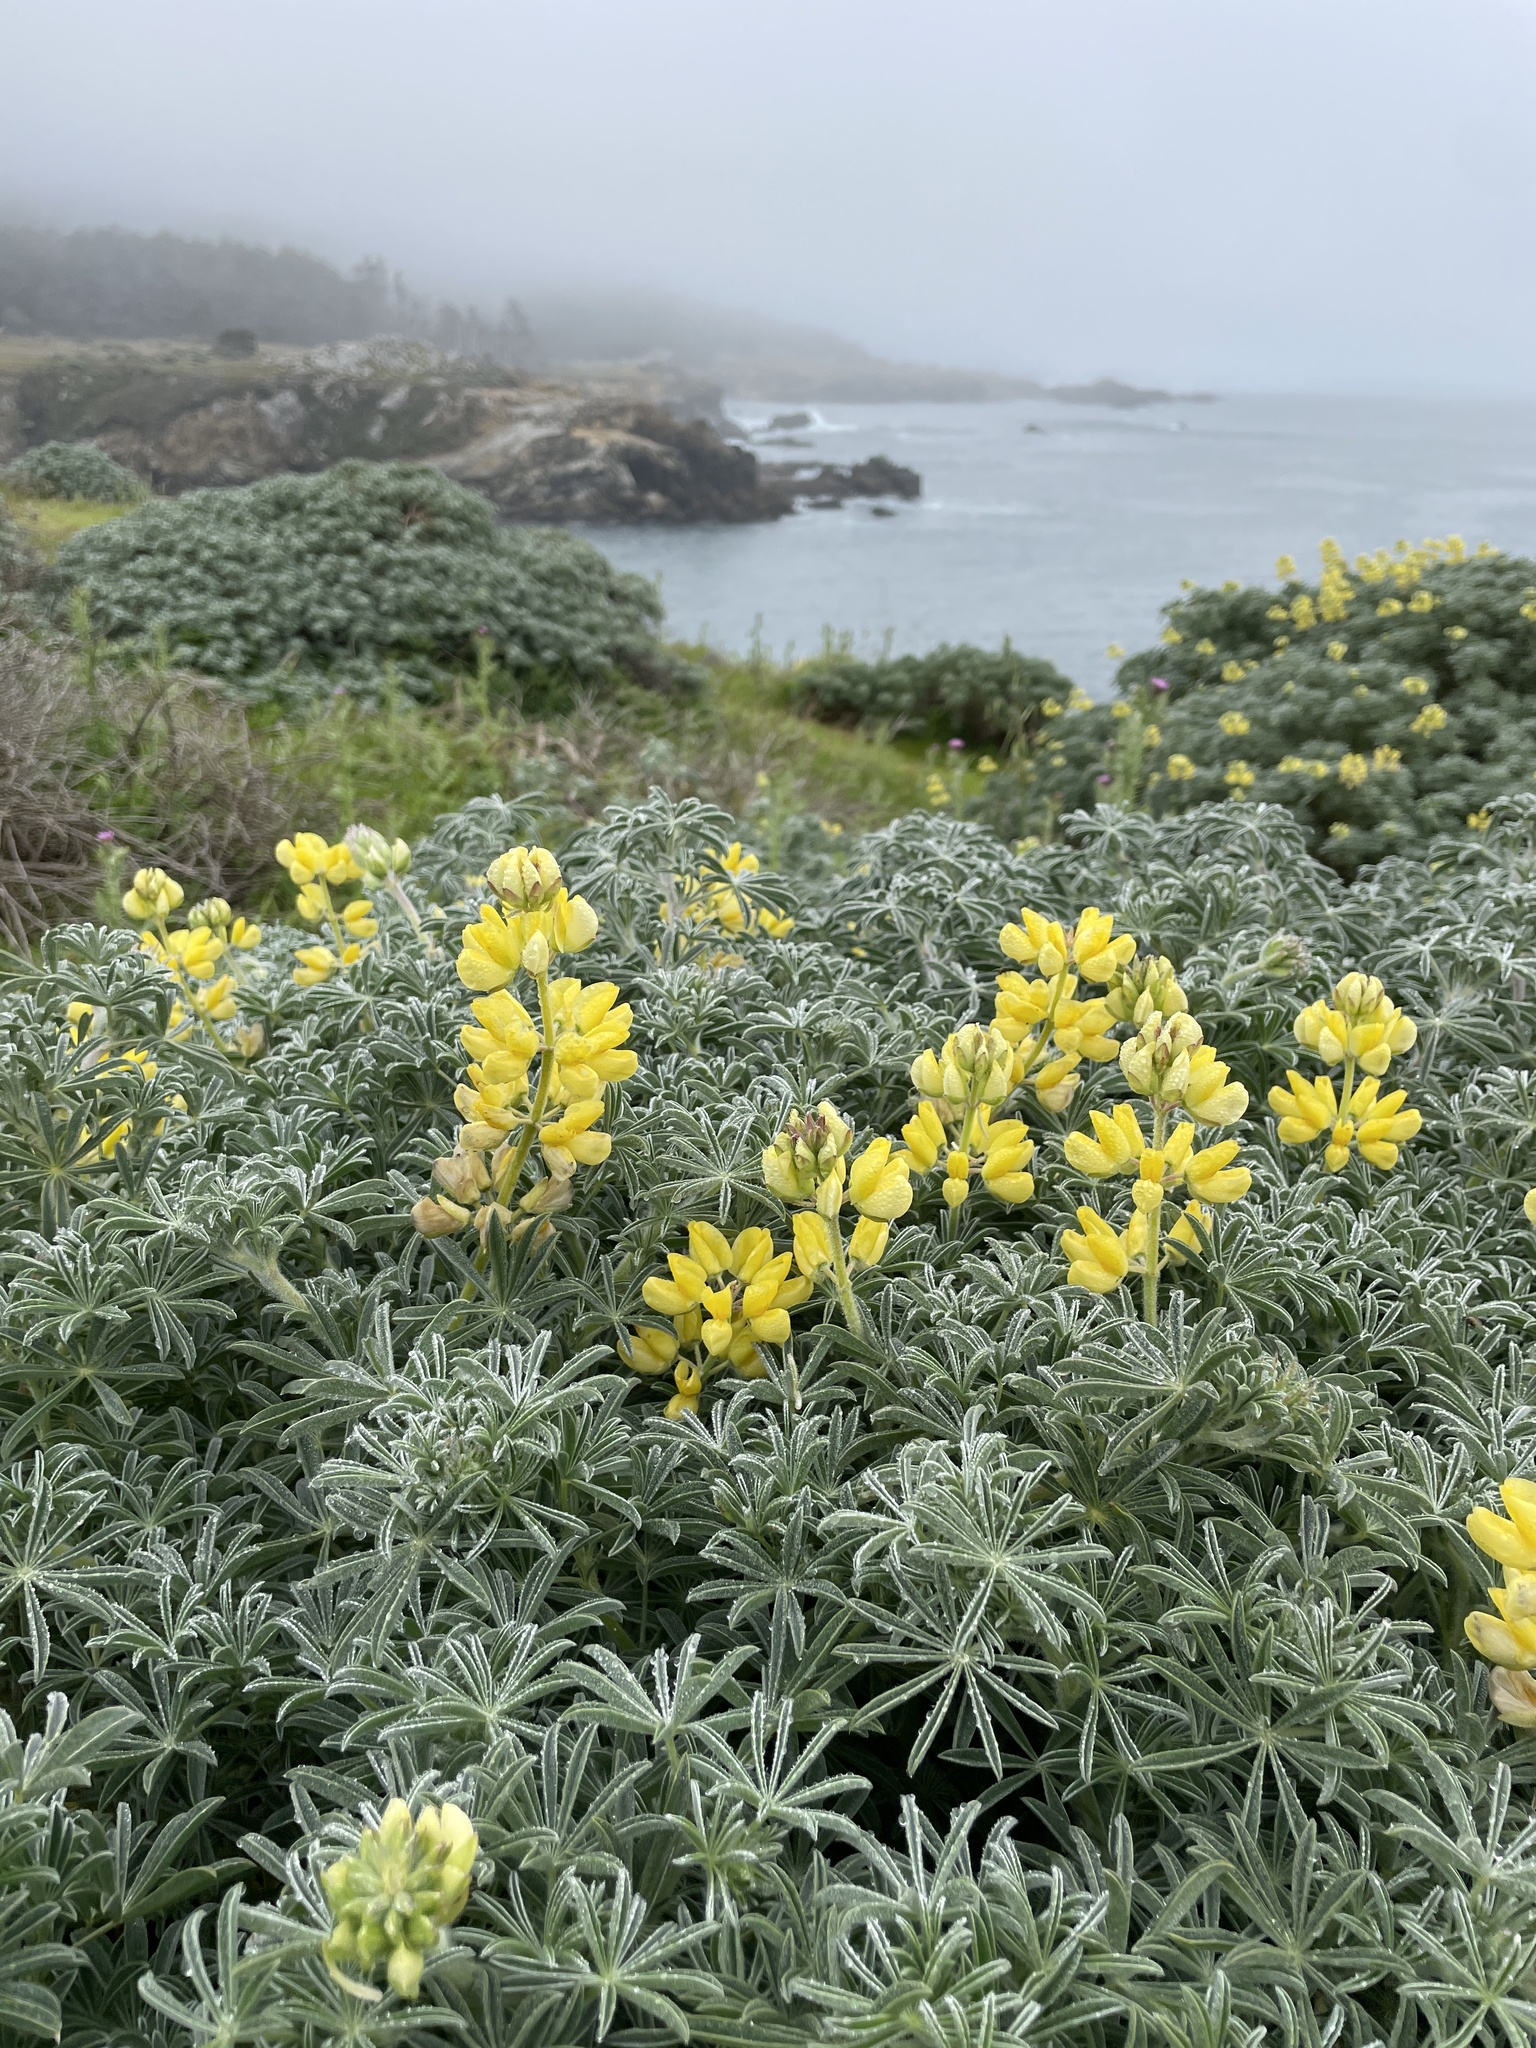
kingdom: Plantae
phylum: Tracheophyta
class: Magnoliopsida
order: Fabales
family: Fabaceae
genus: Lupinus
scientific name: Lupinus arboreus
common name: Yellow bush lupine
